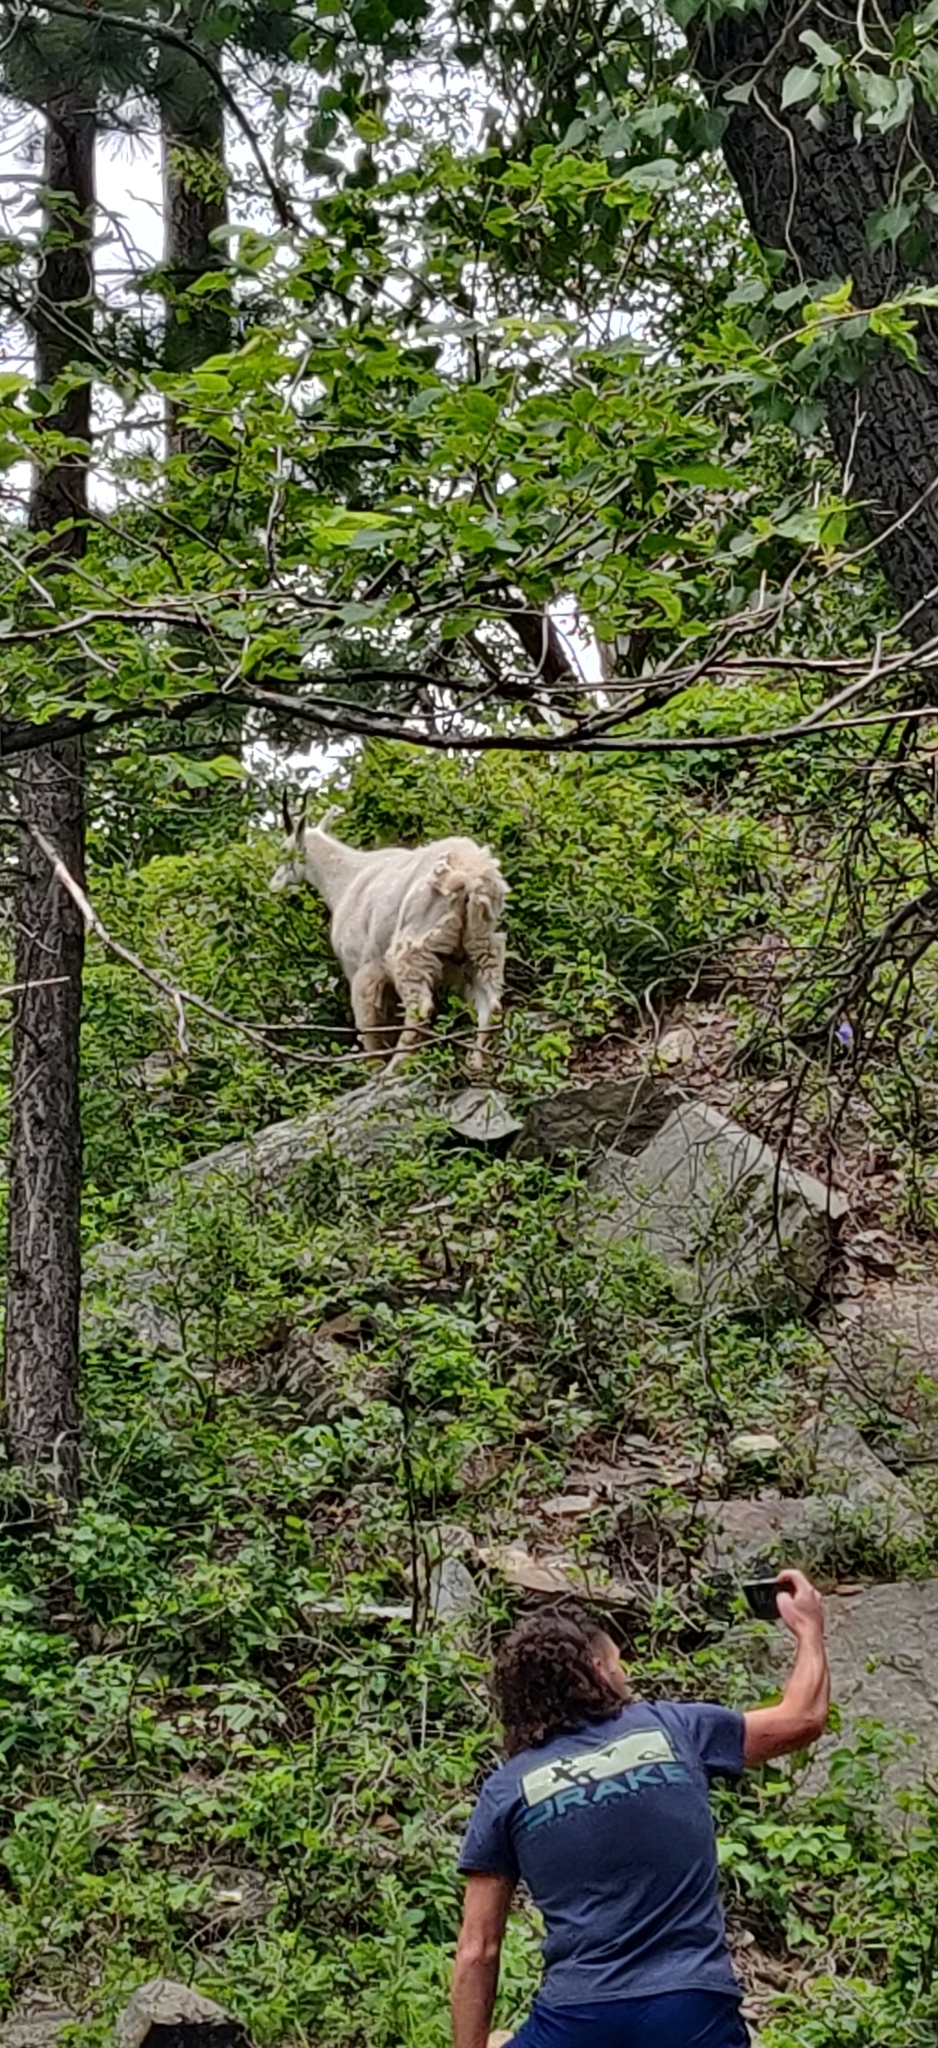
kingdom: Animalia
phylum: Chordata
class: Mammalia
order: Artiodactyla
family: Bovidae
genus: Oreamnos
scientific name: Oreamnos americanus
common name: Mountain goat
